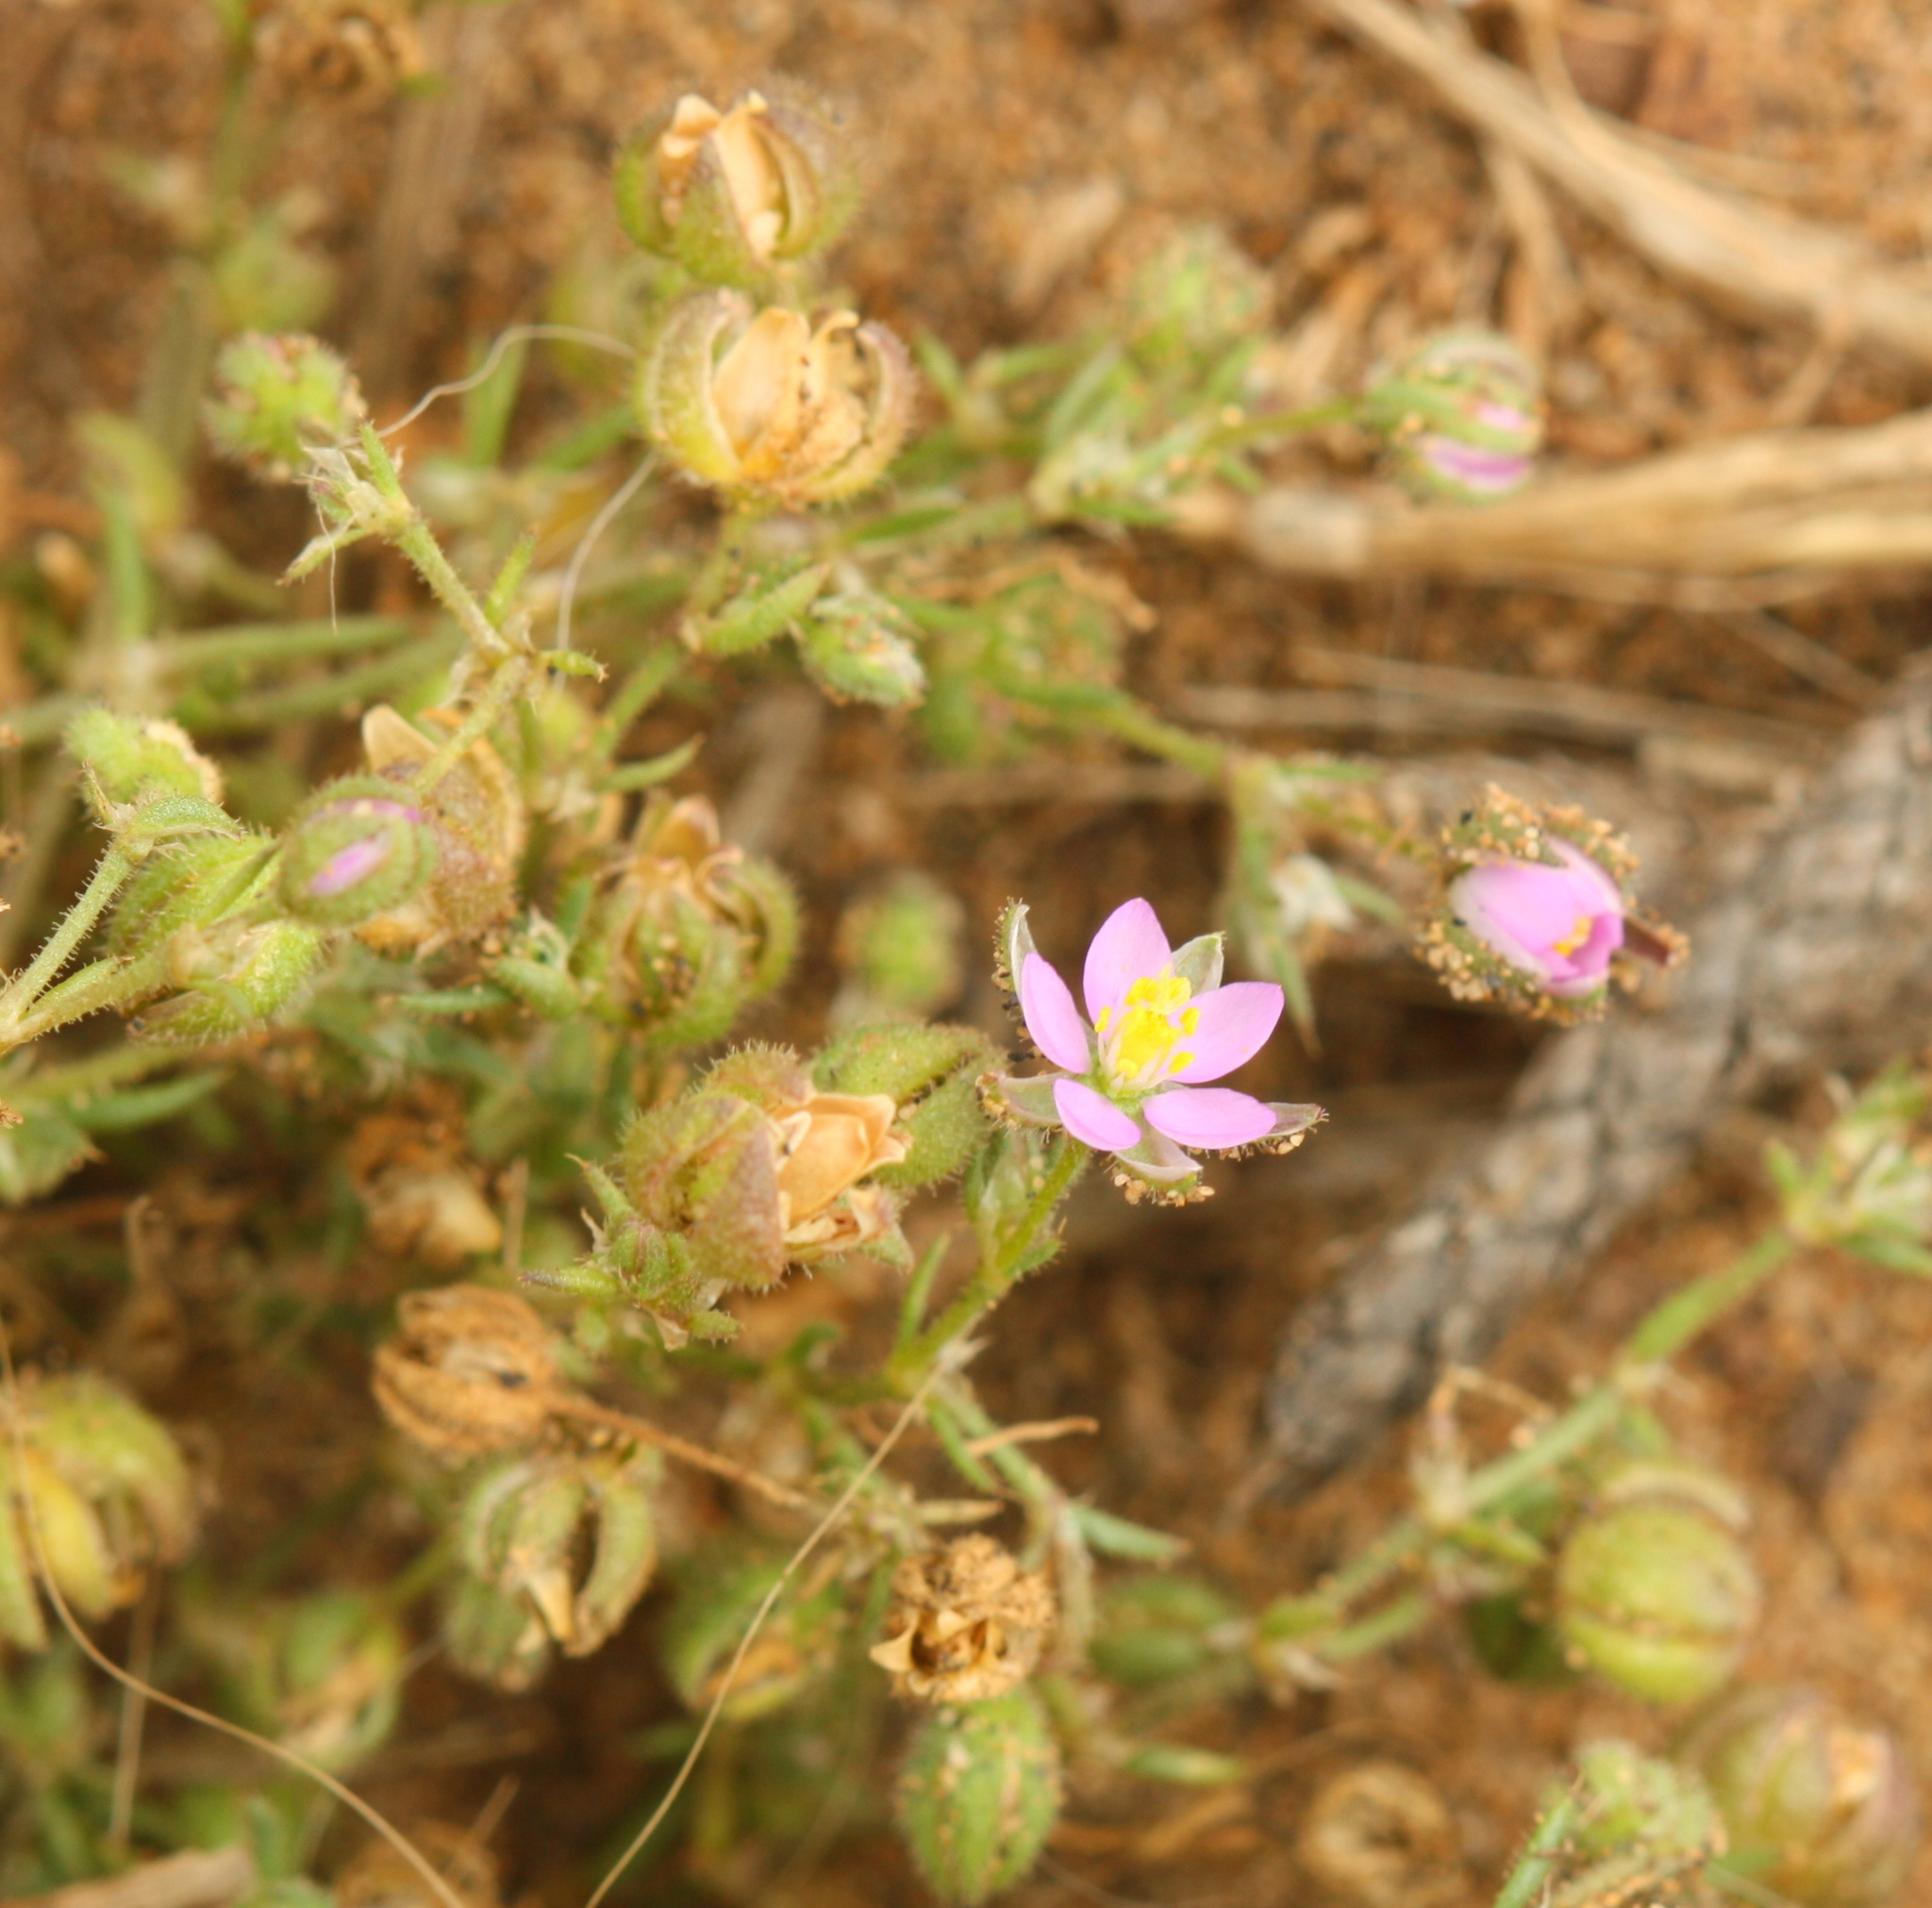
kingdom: Plantae
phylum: Tracheophyta
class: Magnoliopsida
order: Caryophyllales
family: Caryophyllaceae
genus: Spergularia
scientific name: Spergularia rubra
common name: Red sand-spurrey
